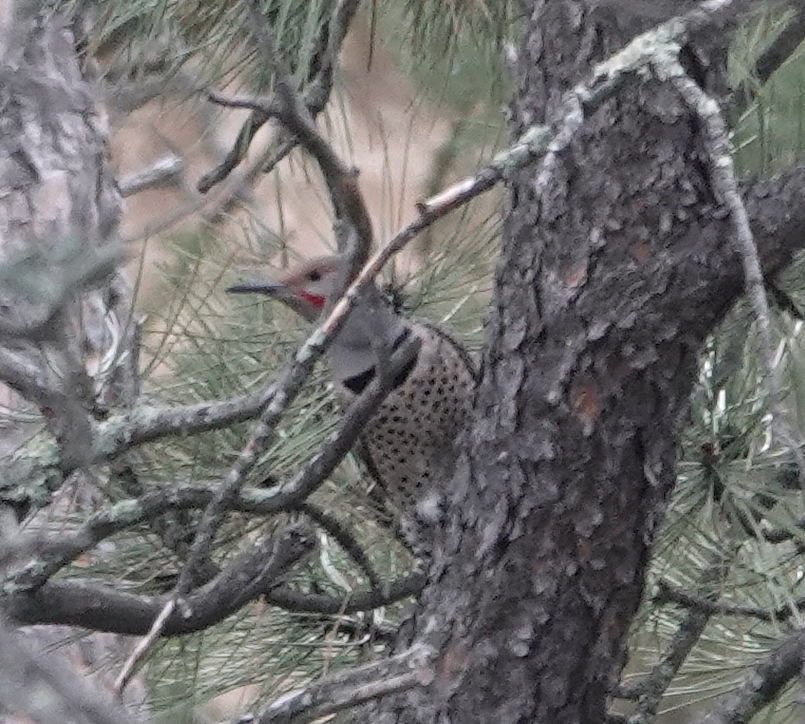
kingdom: Animalia
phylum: Chordata
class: Aves
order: Piciformes
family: Picidae
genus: Colaptes
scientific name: Colaptes auratus
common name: Northern flicker
